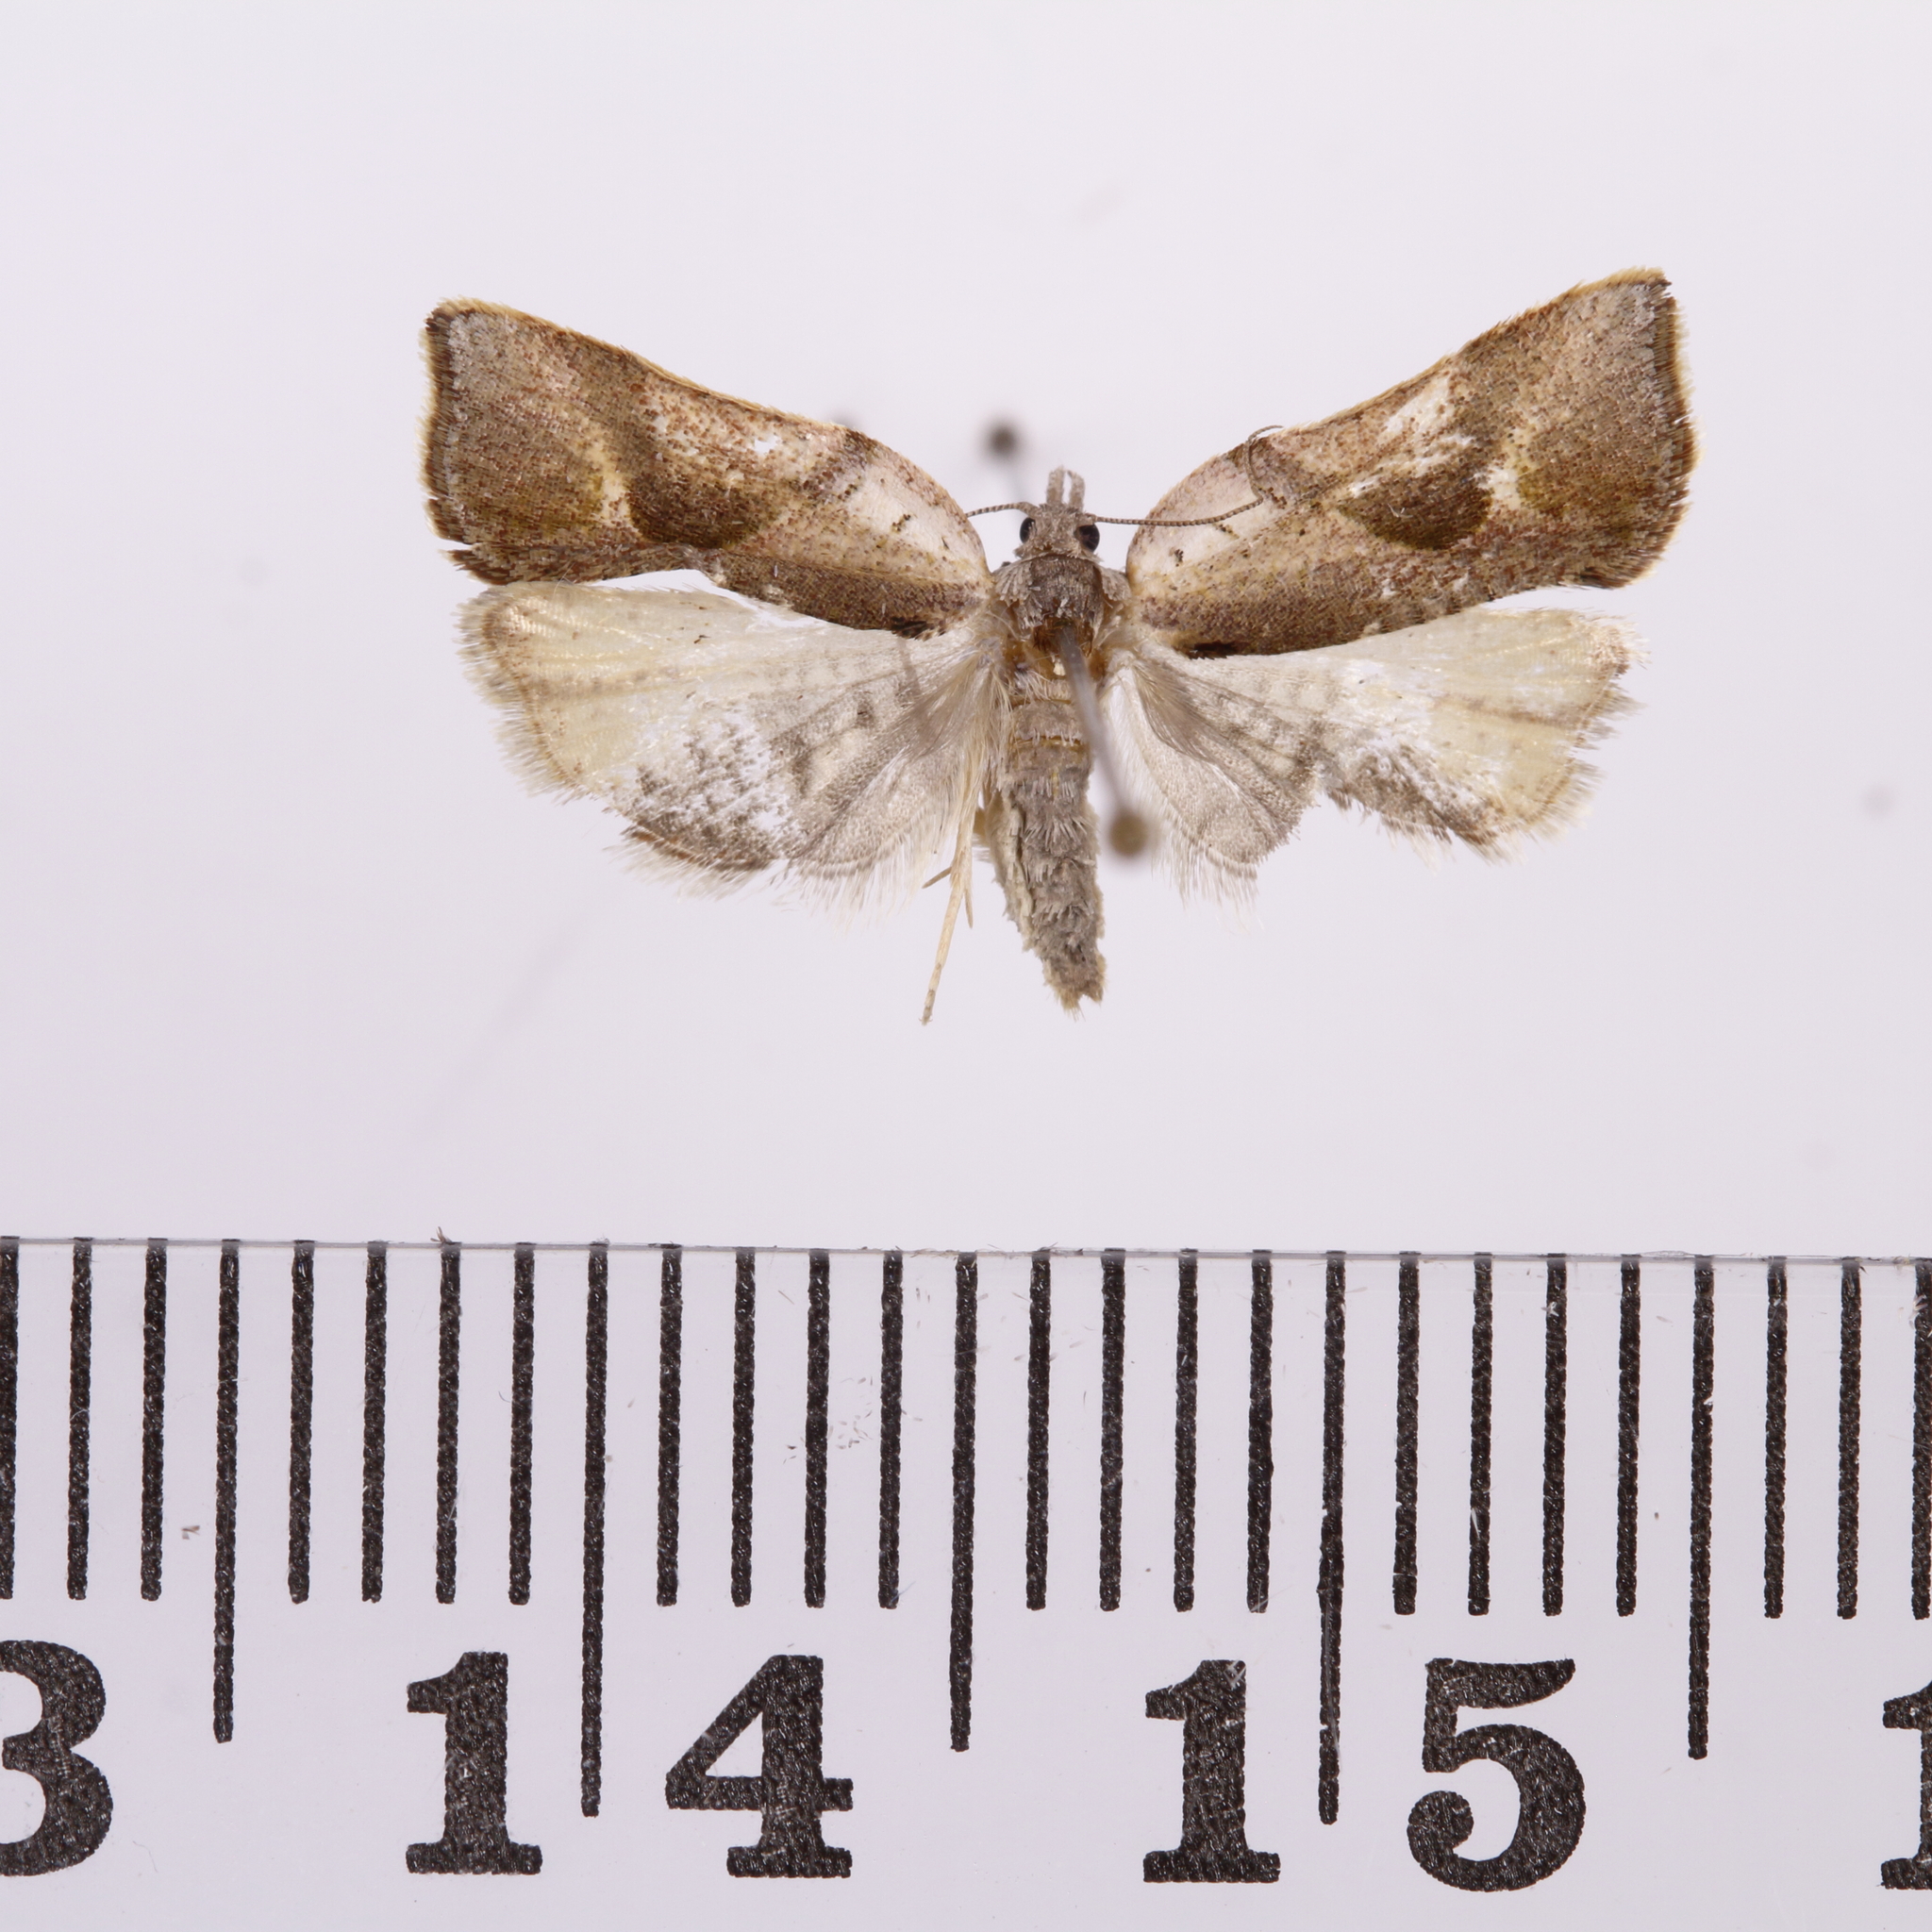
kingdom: Animalia
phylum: Arthropoda
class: Insecta
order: Lepidoptera
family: Tortricidae
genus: Pyrgotis
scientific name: Pyrgotis plagiatana
